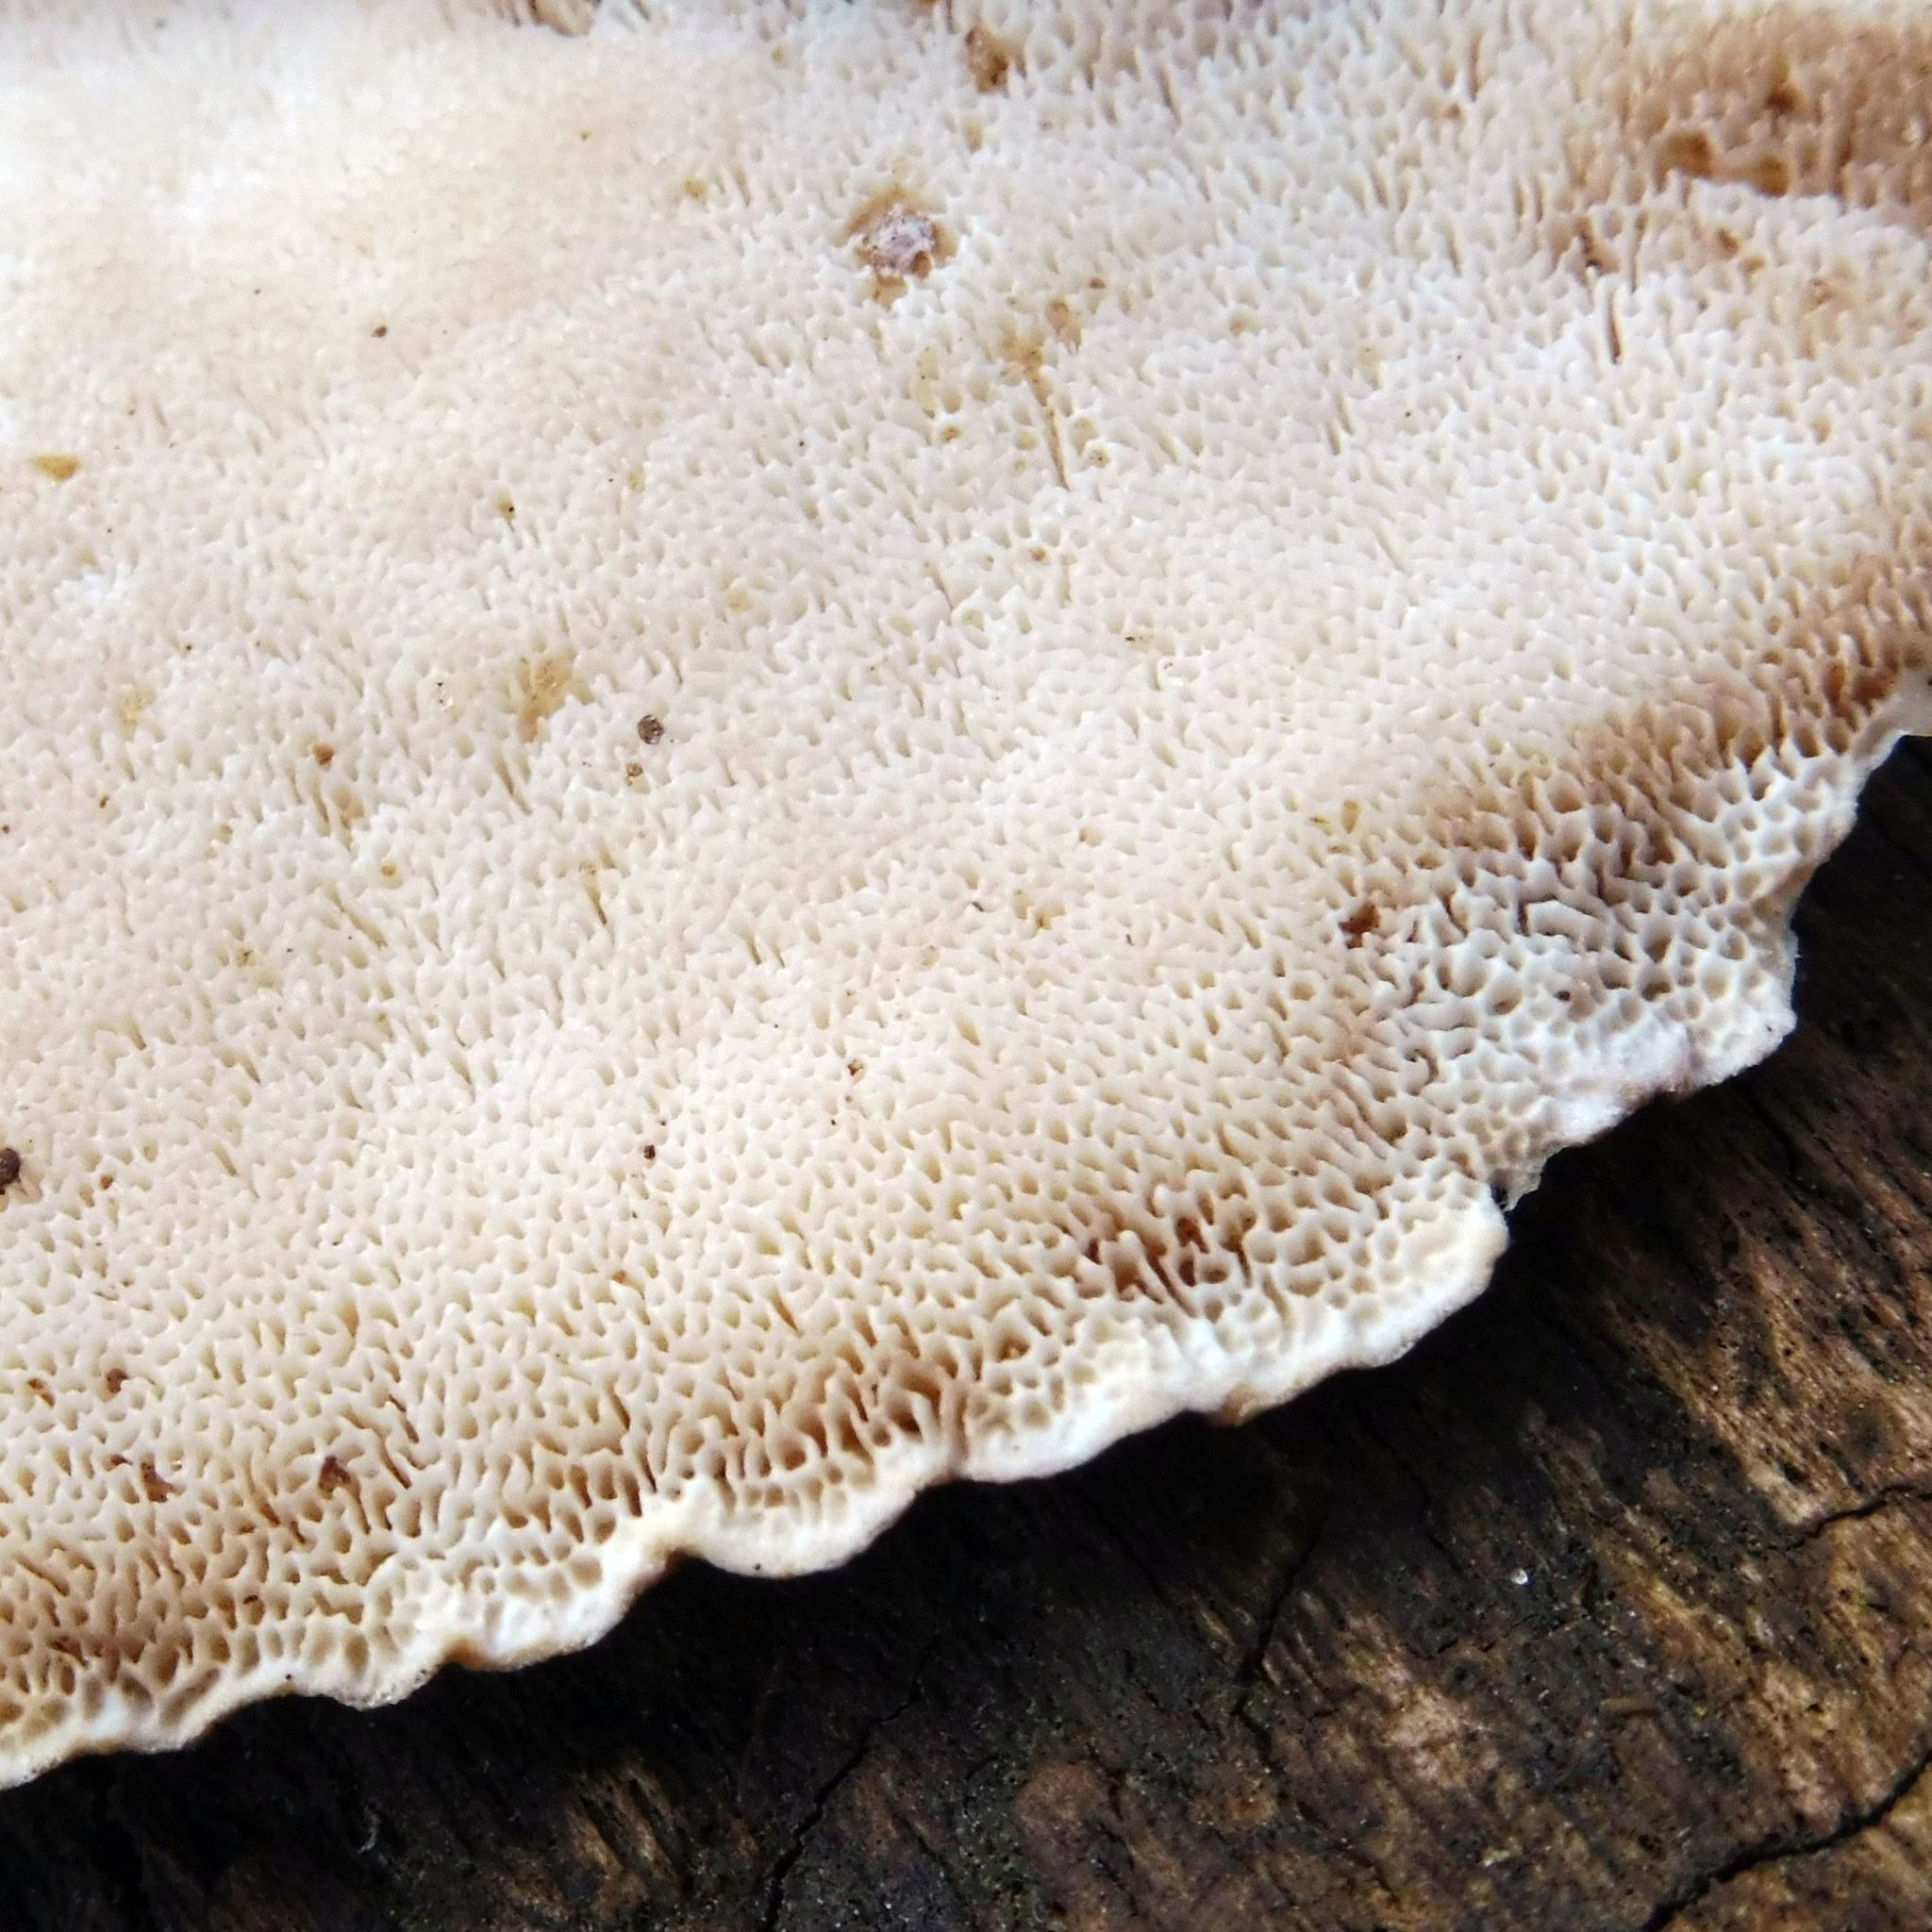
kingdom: Fungi
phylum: Basidiomycota
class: Agaricomycetes
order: Polyporales
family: Polyporaceae
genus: Trametes
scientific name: Trametes versicolor
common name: Turkeytail
